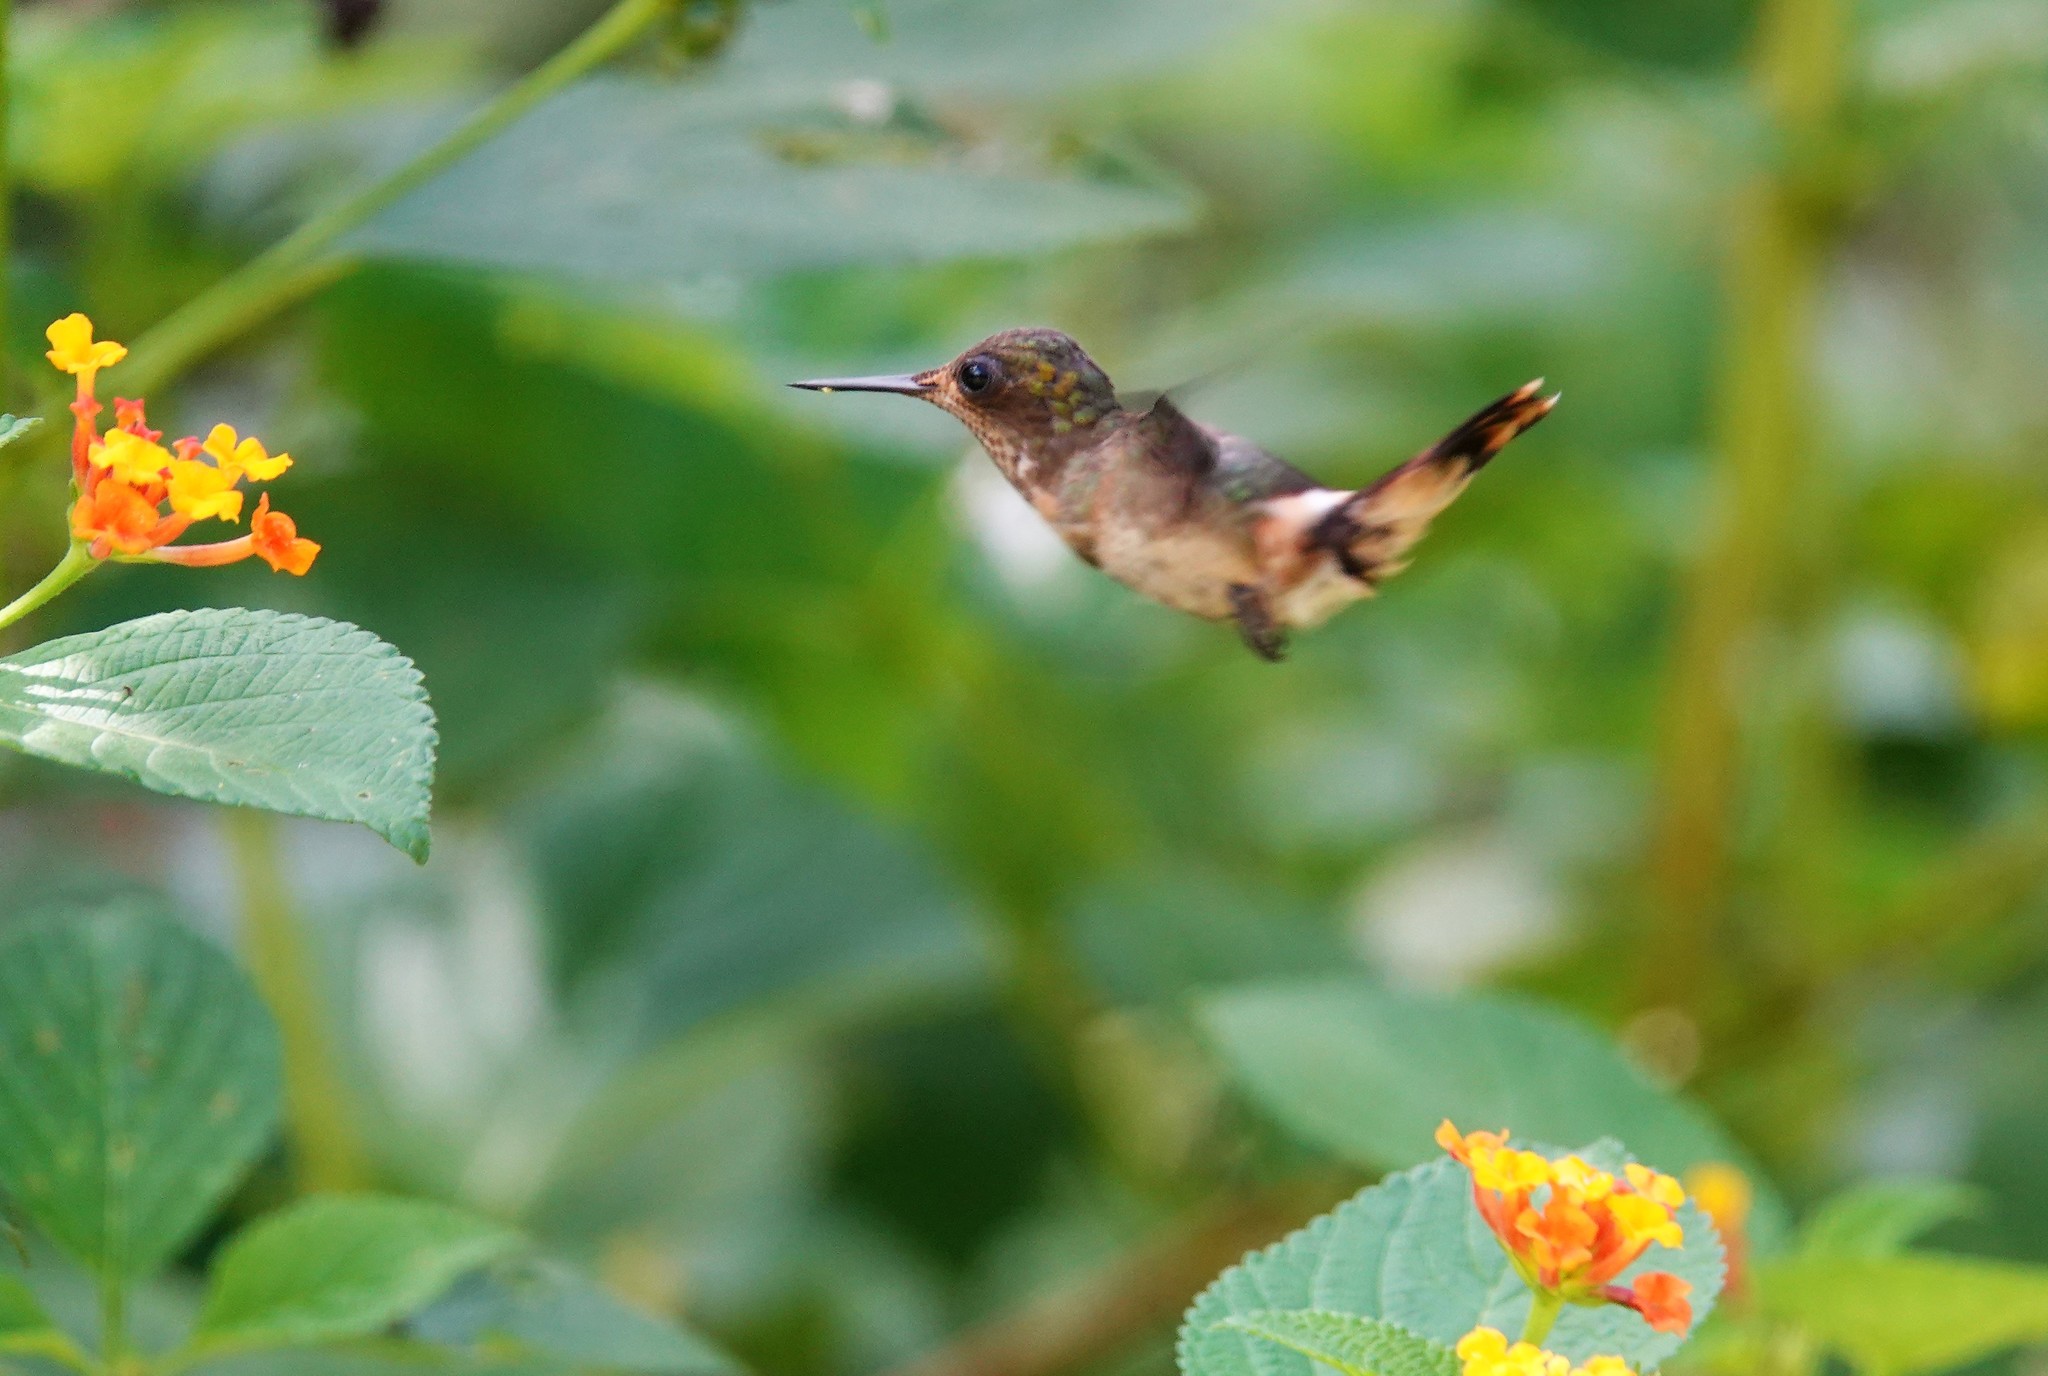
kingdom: Animalia
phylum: Chordata
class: Aves
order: Apodiformes
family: Trochilidae
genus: Lophornis
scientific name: Lophornis ornatus
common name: Tufted coquette
